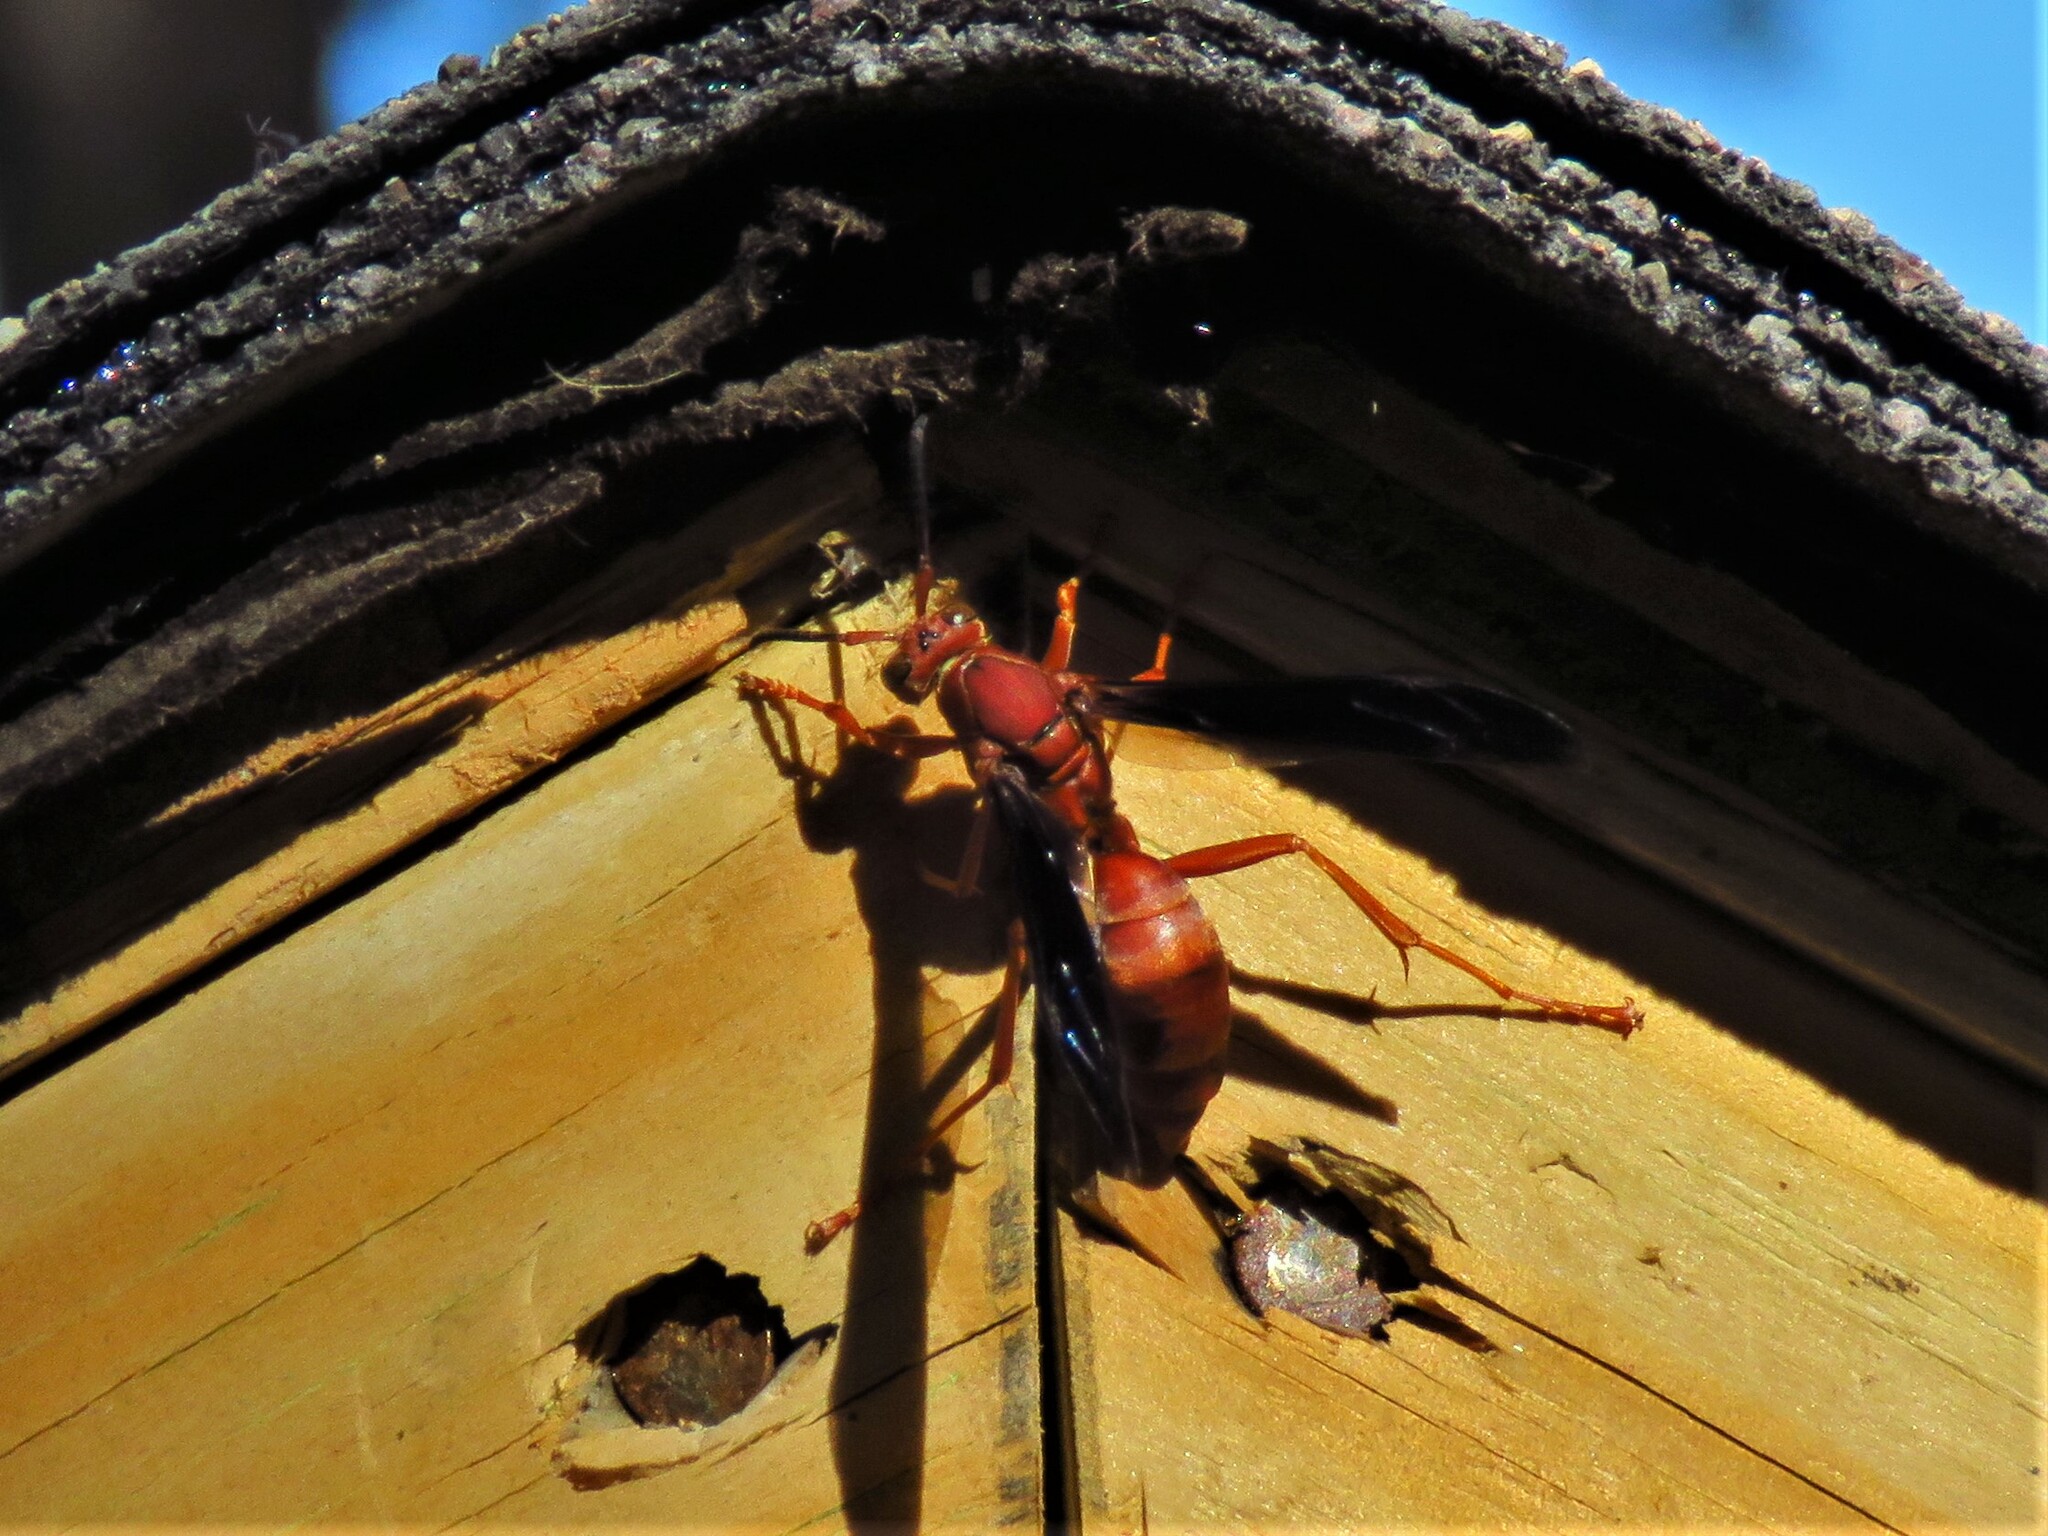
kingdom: Animalia
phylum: Arthropoda
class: Insecta
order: Hymenoptera
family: Vespidae
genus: Fuscopolistes
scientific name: Fuscopolistes
